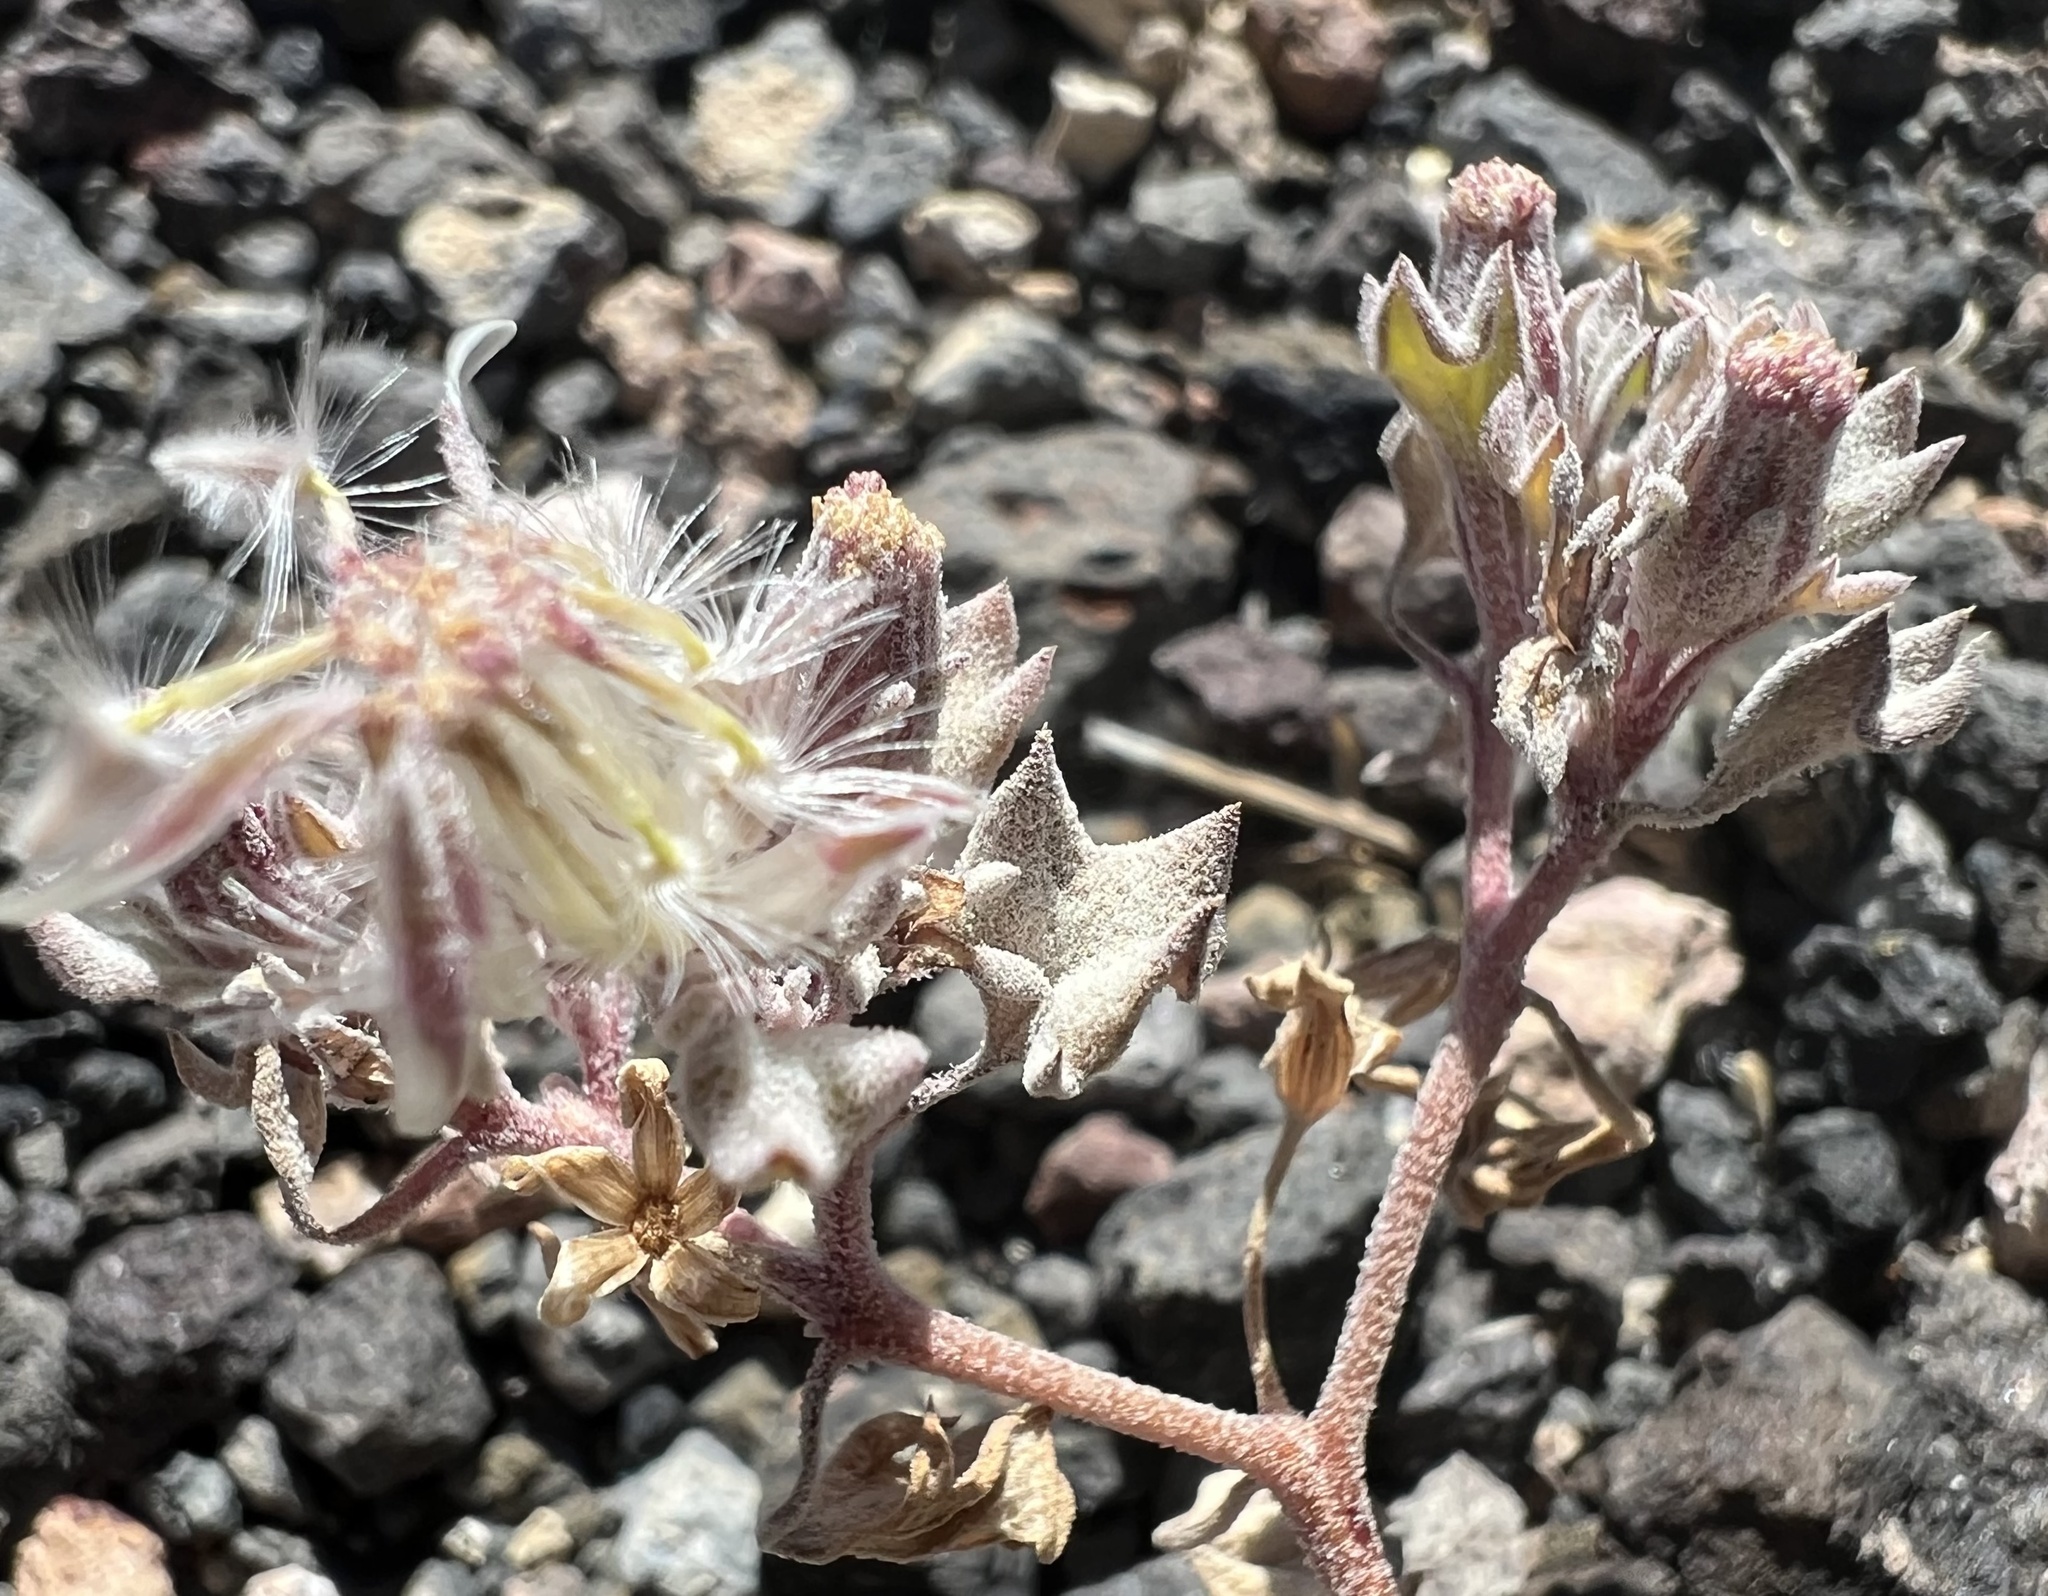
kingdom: Plantae
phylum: Tracheophyta
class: Magnoliopsida
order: Asterales
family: Asteraceae
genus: Psathyrotes
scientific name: Psathyrotes annua
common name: Mealy rosettes
